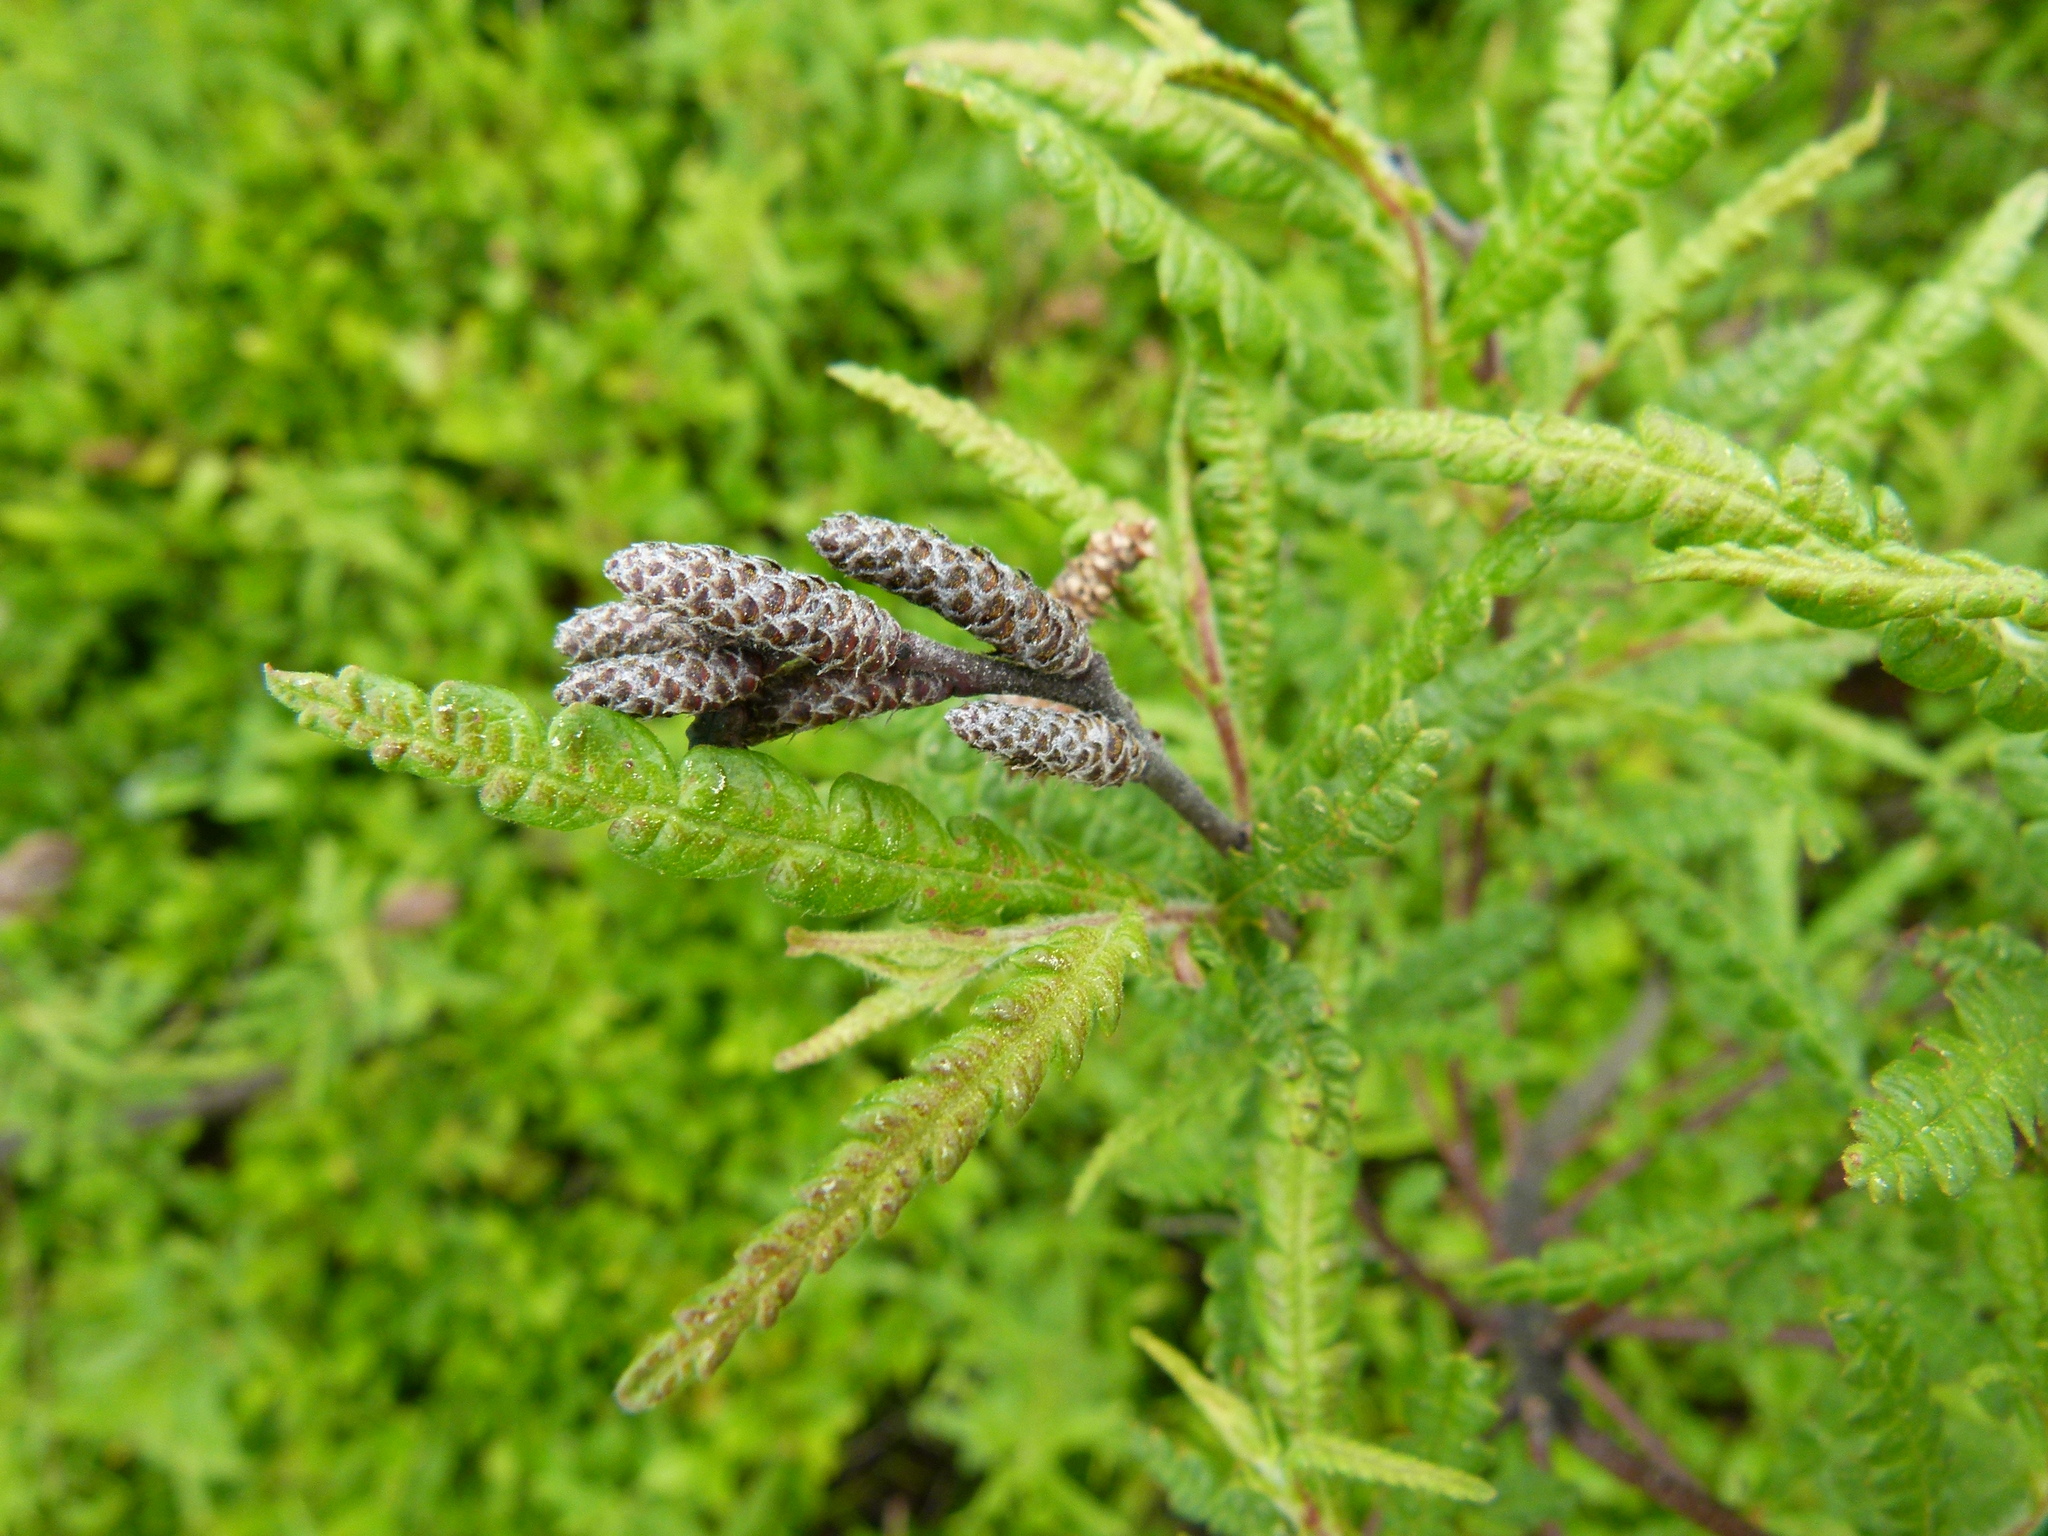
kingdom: Plantae
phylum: Tracheophyta
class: Magnoliopsida
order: Fagales
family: Myricaceae
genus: Comptonia
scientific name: Comptonia peregrina
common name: Sweet-fern
